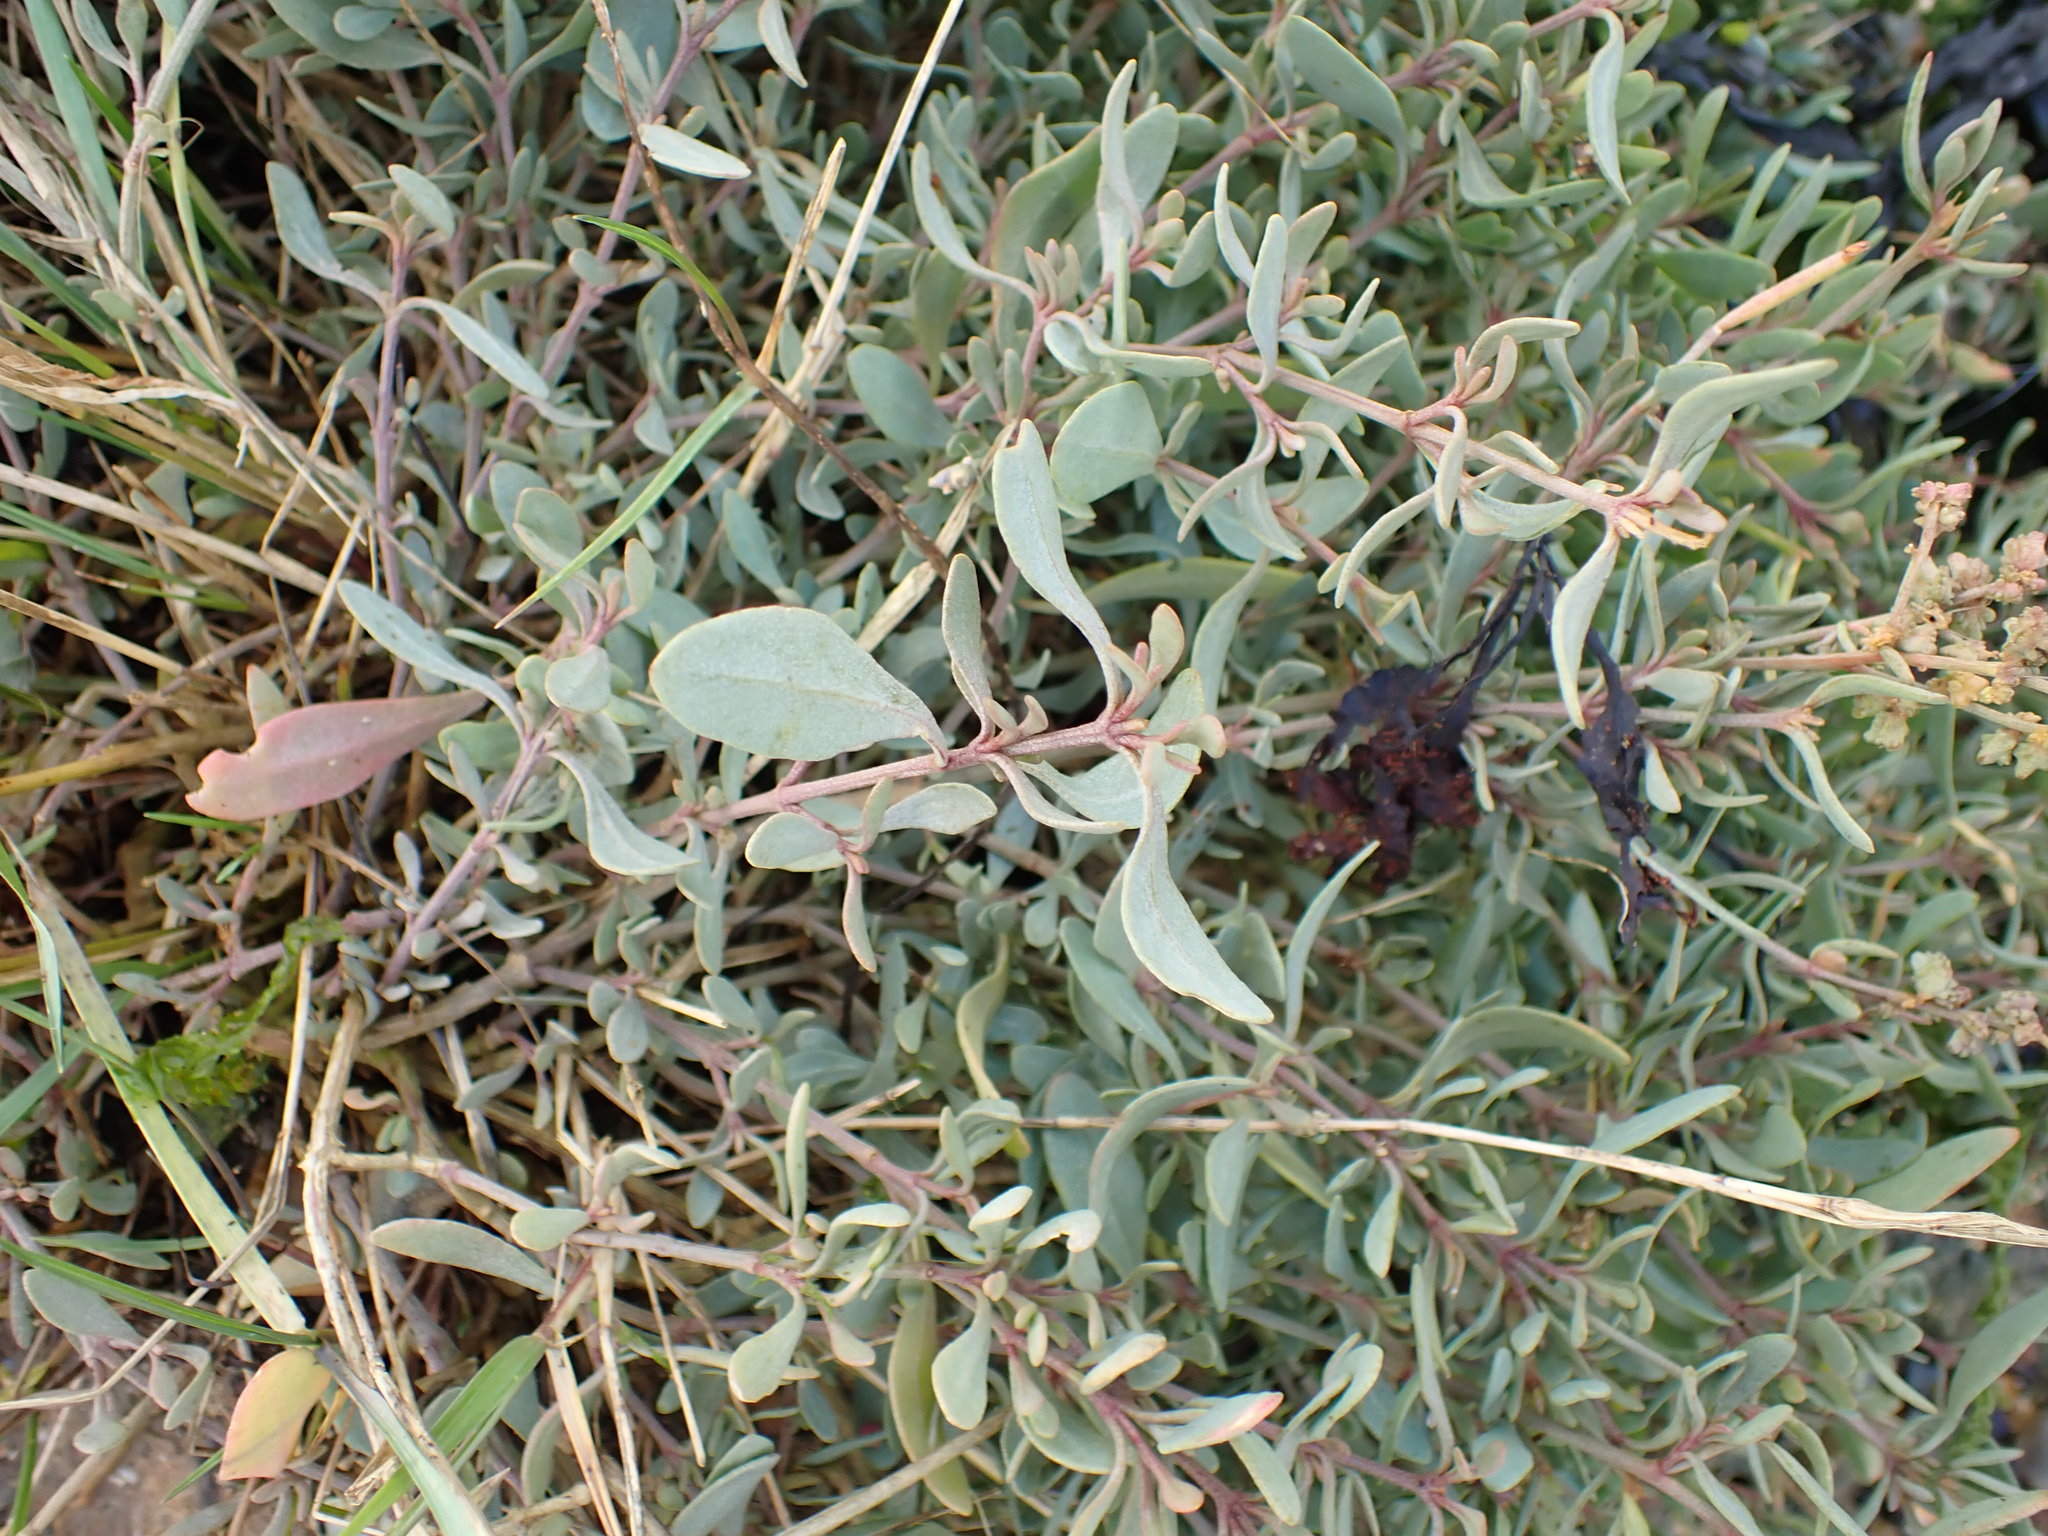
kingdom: Plantae
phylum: Tracheophyta
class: Magnoliopsida
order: Caryophyllales
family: Amaranthaceae
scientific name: Amaranthaceae
